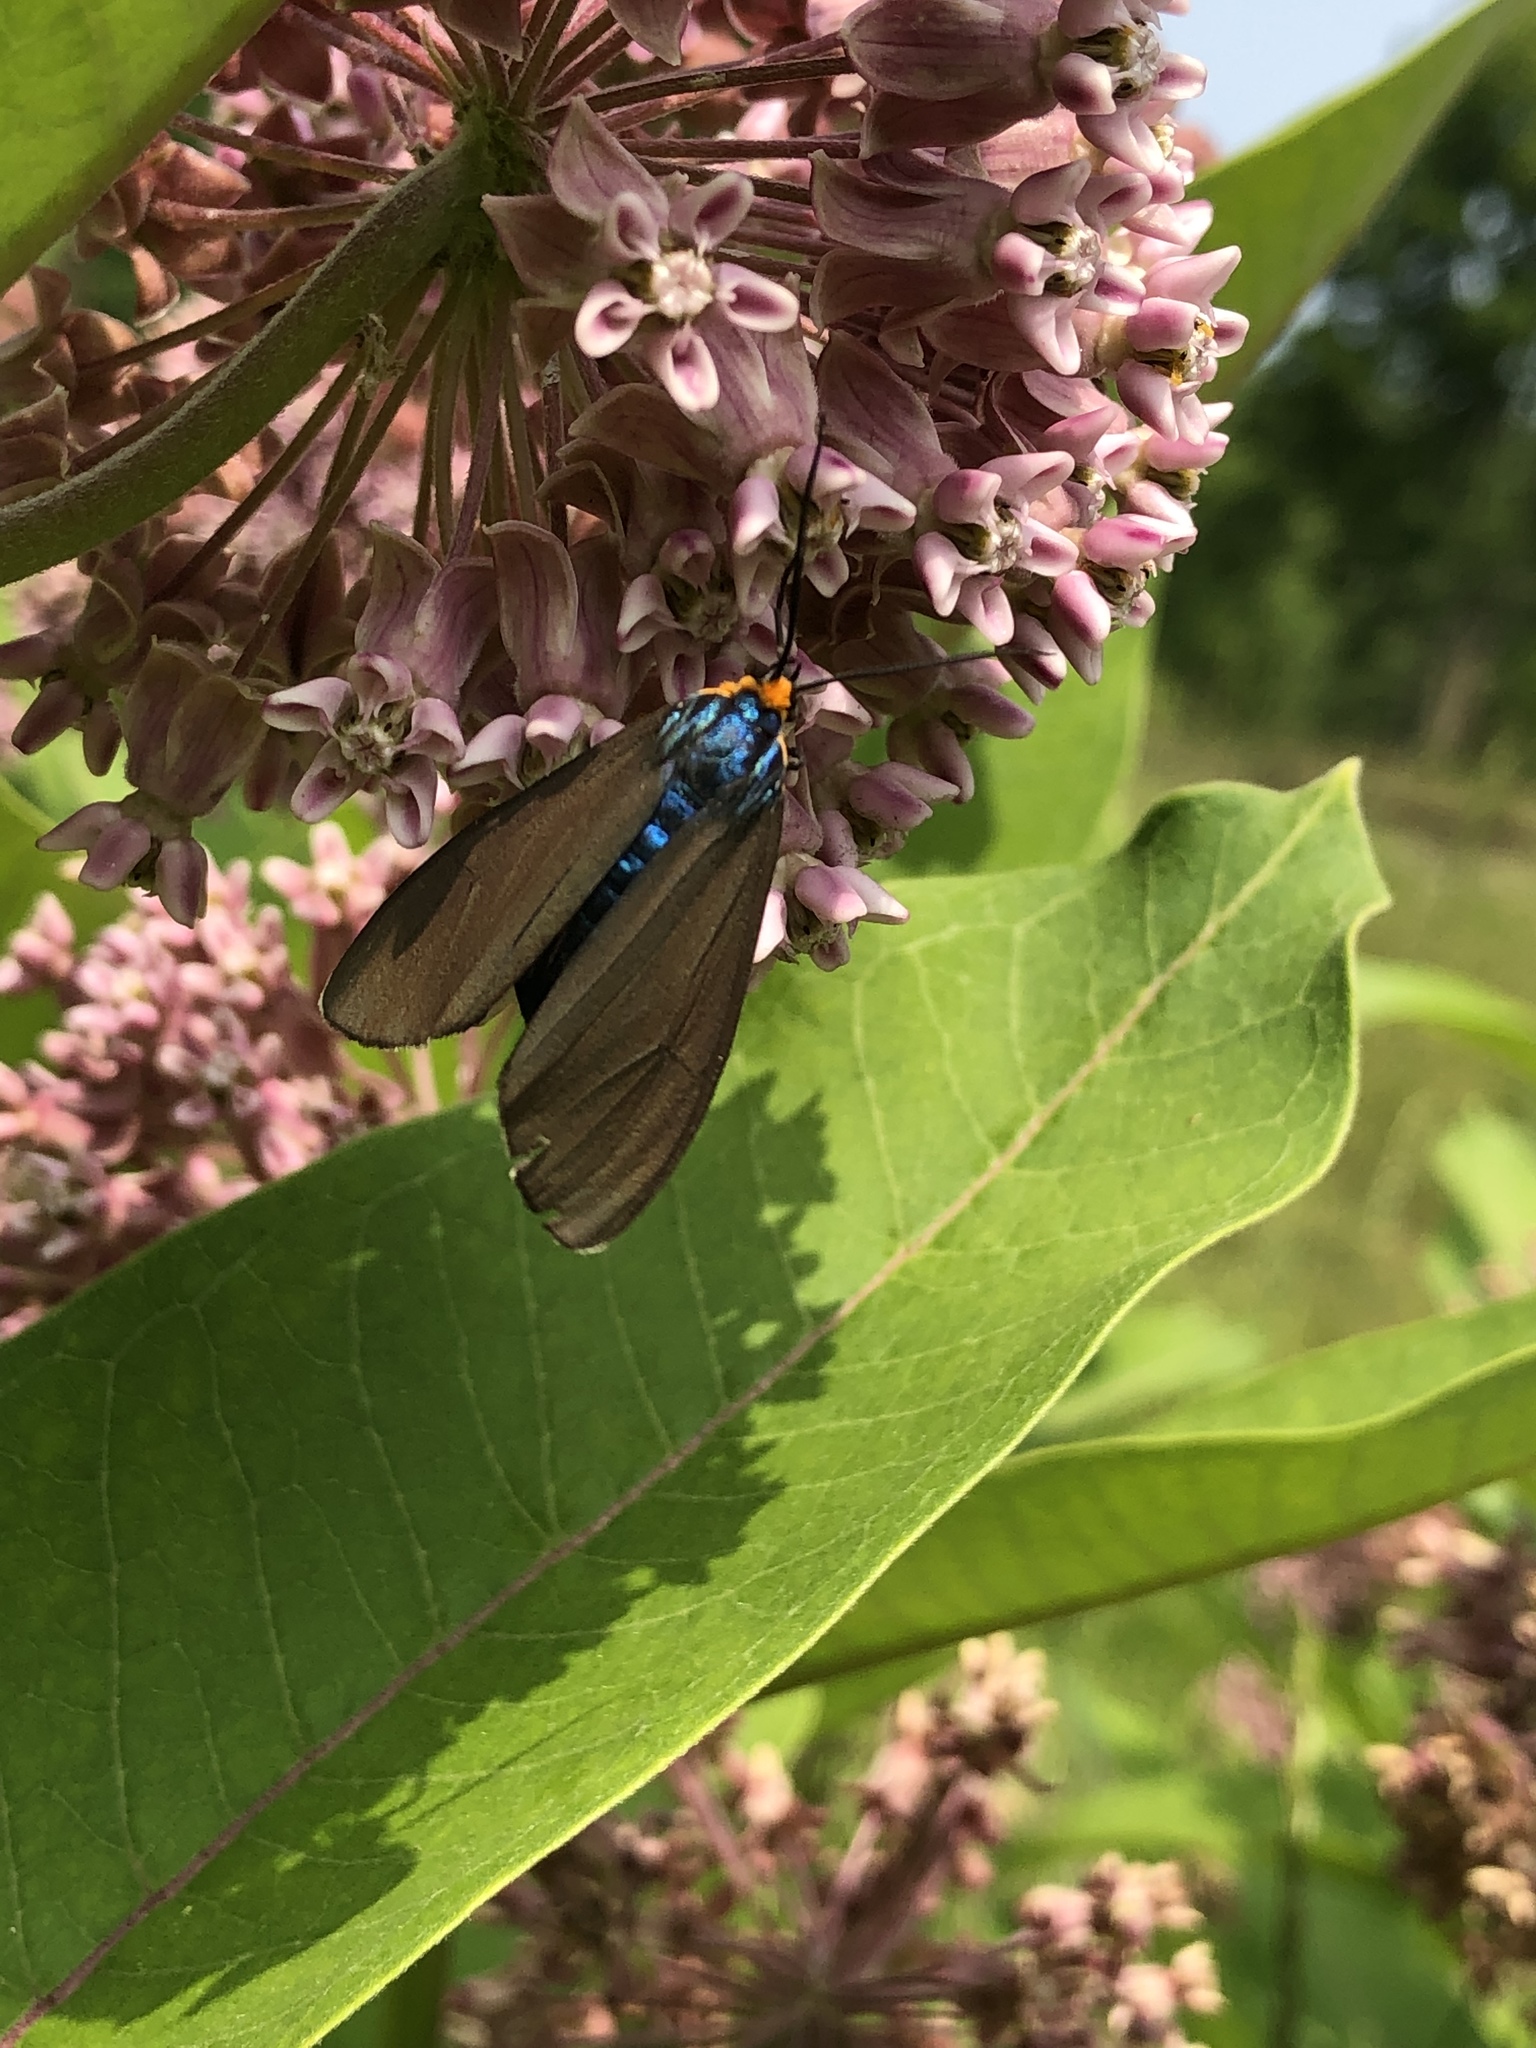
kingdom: Animalia
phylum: Arthropoda
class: Insecta
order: Lepidoptera
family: Erebidae
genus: Ctenucha
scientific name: Ctenucha virginica
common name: Virginia ctenucha moth
